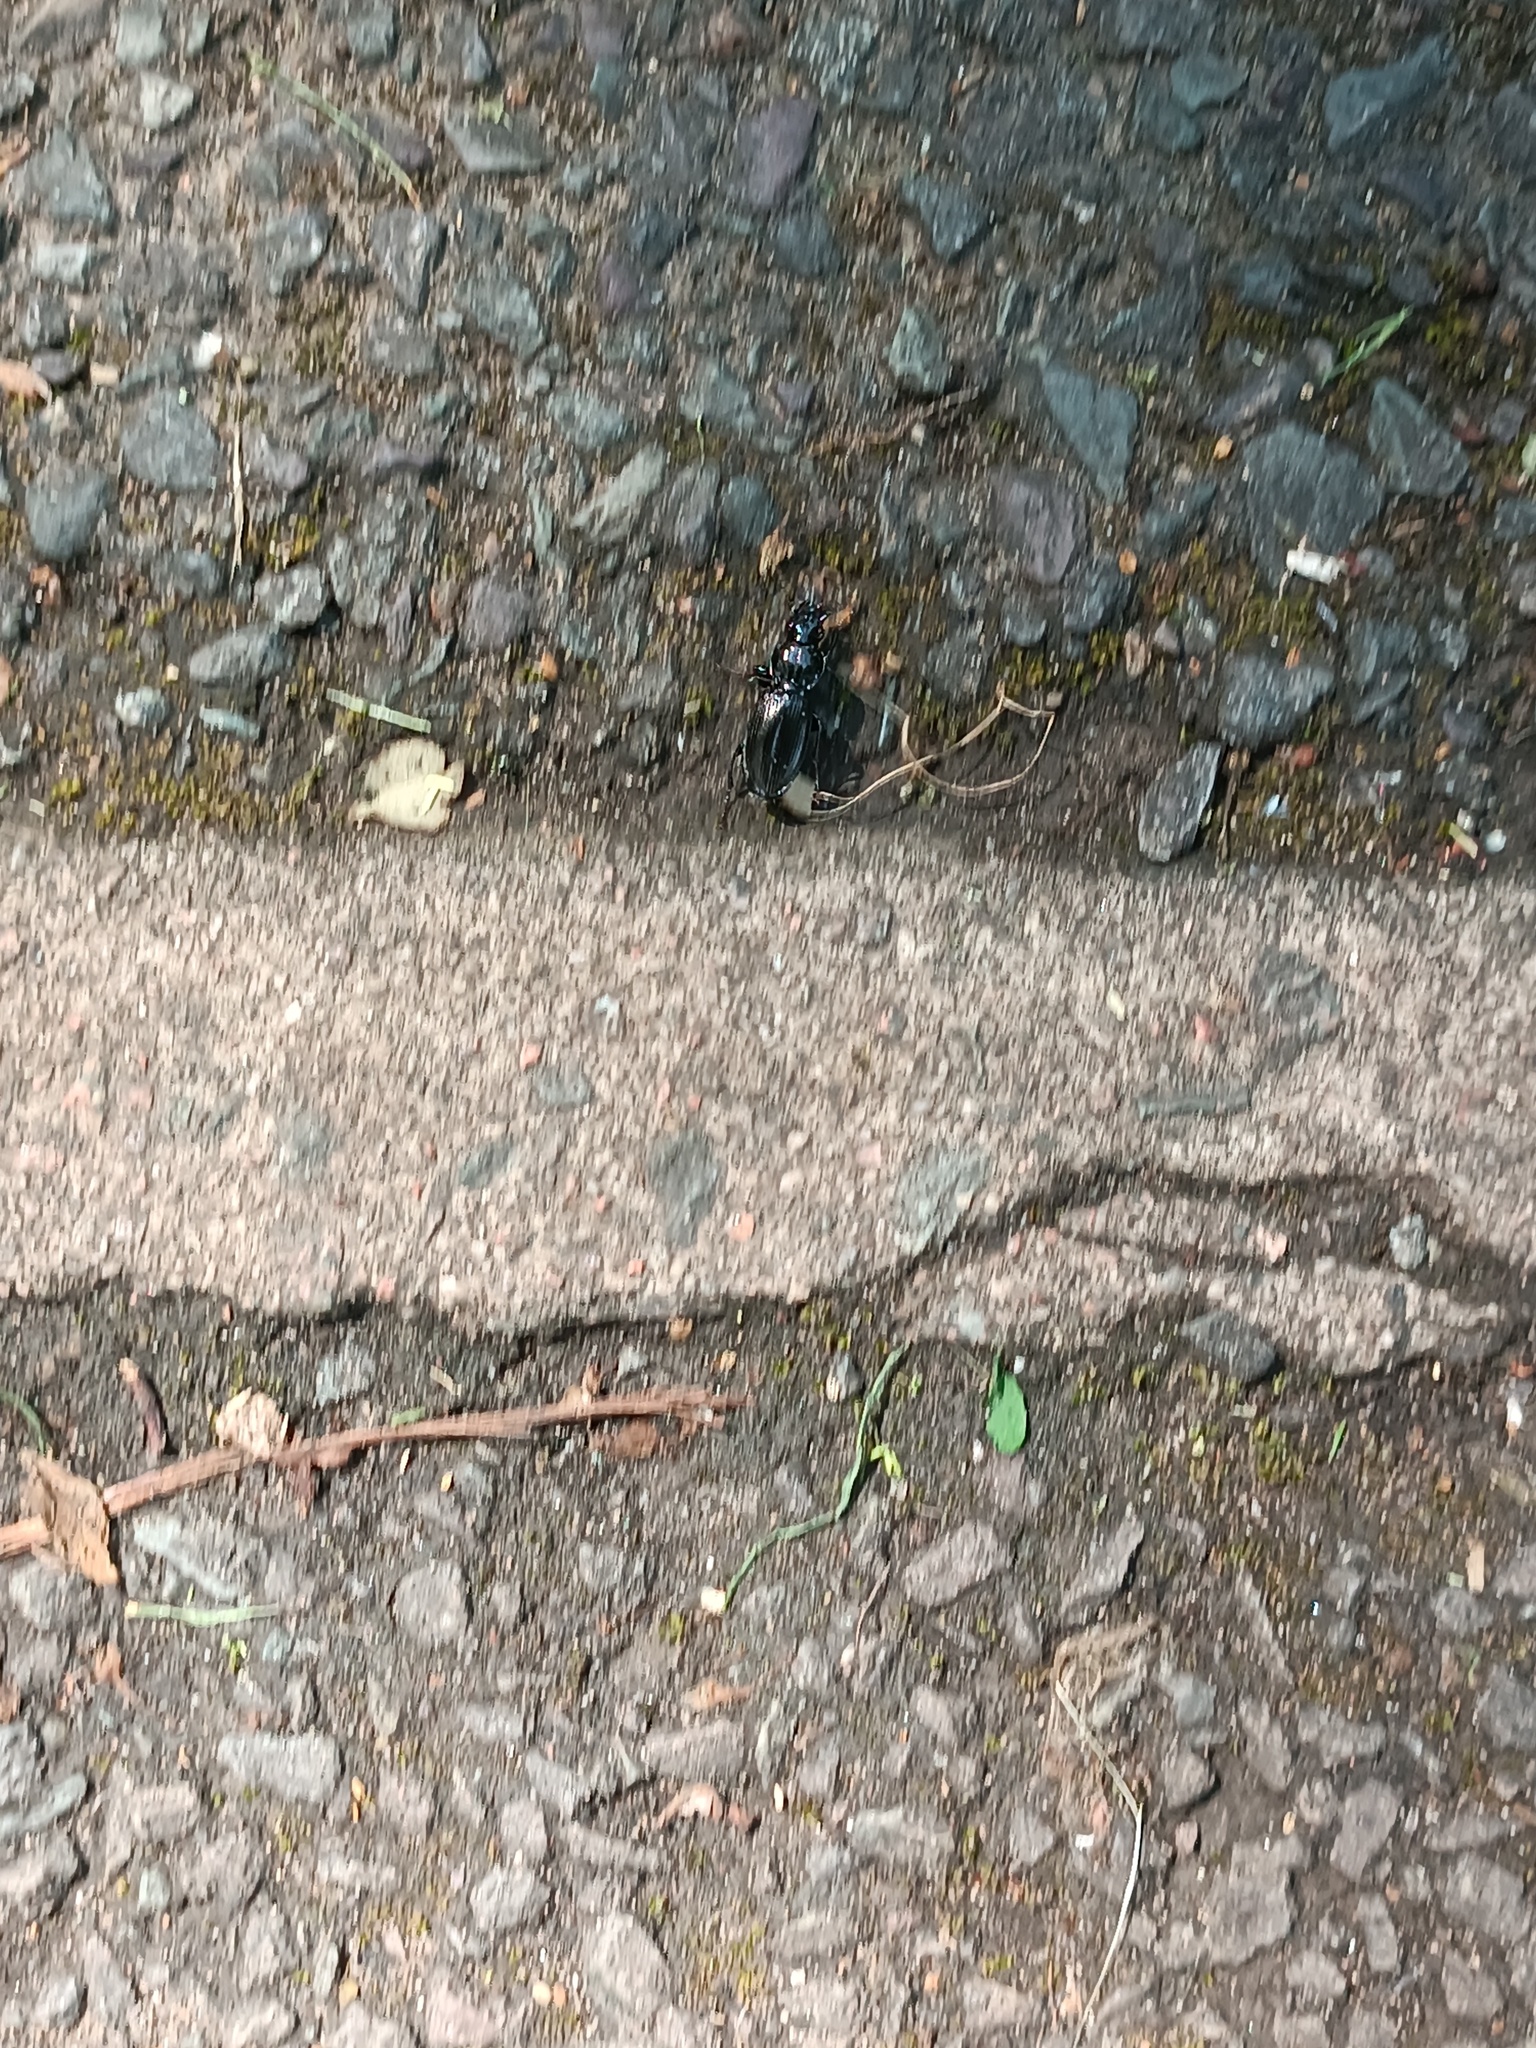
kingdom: Animalia
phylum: Arthropoda
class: Insecta
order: Coleoptera
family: Carabidae
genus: Pterostichus
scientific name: Pterostichus madidus
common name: Black clock
